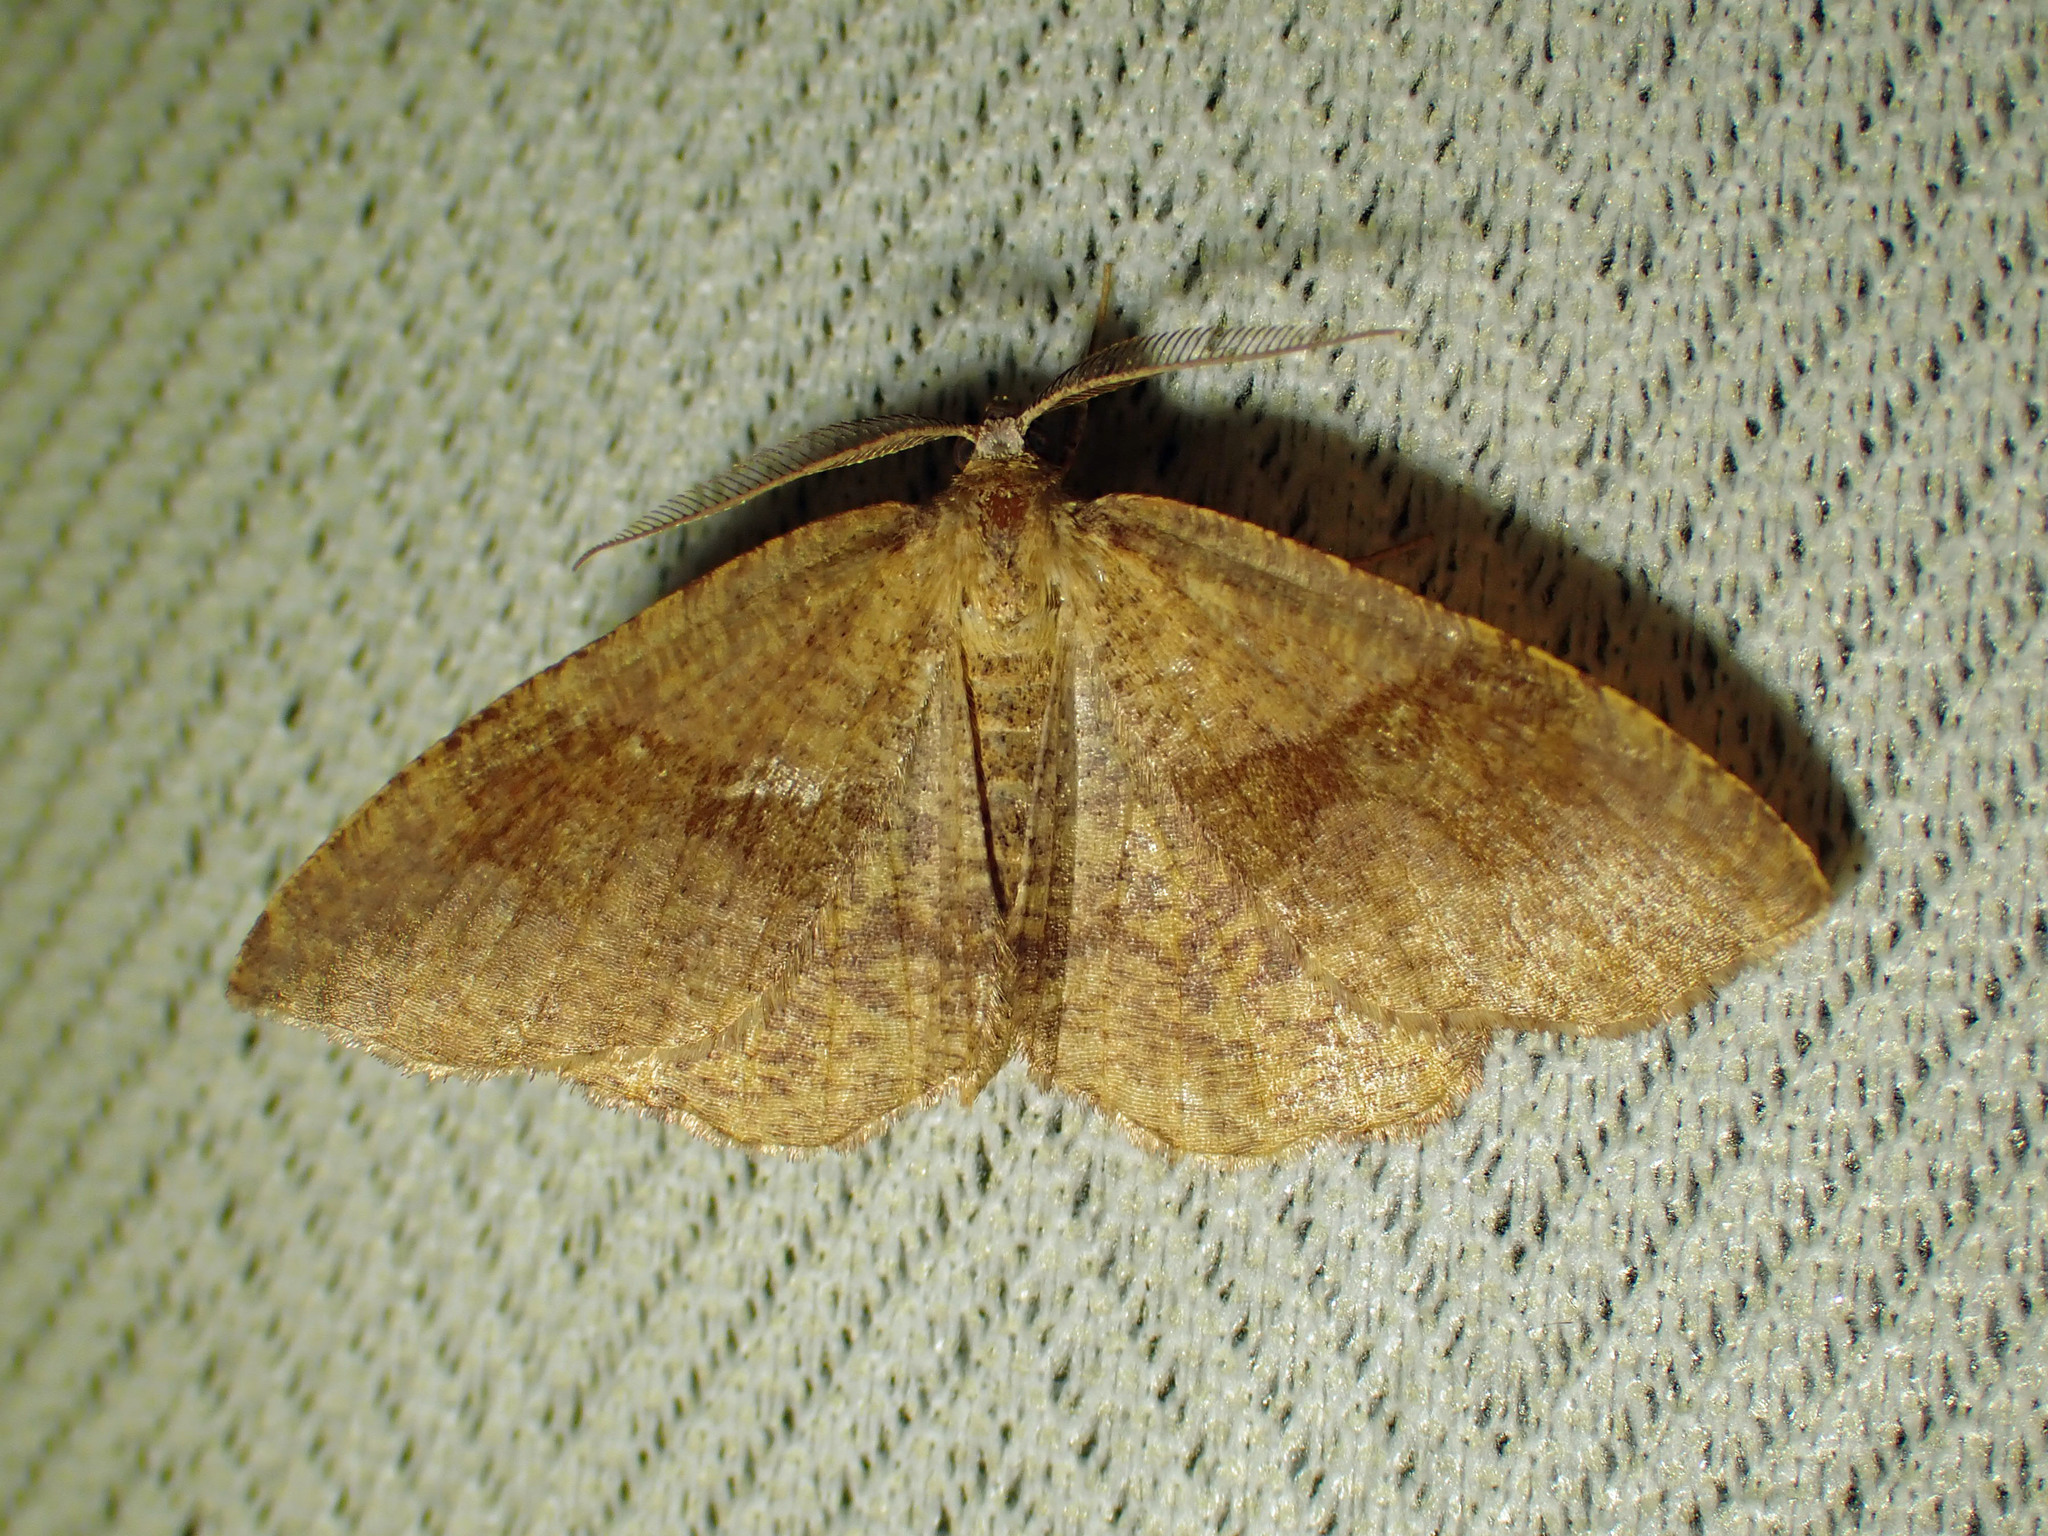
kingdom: Animalia
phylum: Arthropoda
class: Insecta
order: Lepidoptera
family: Geometridae
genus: Plagodis
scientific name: Plagodis pulveraria
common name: Barred umber
